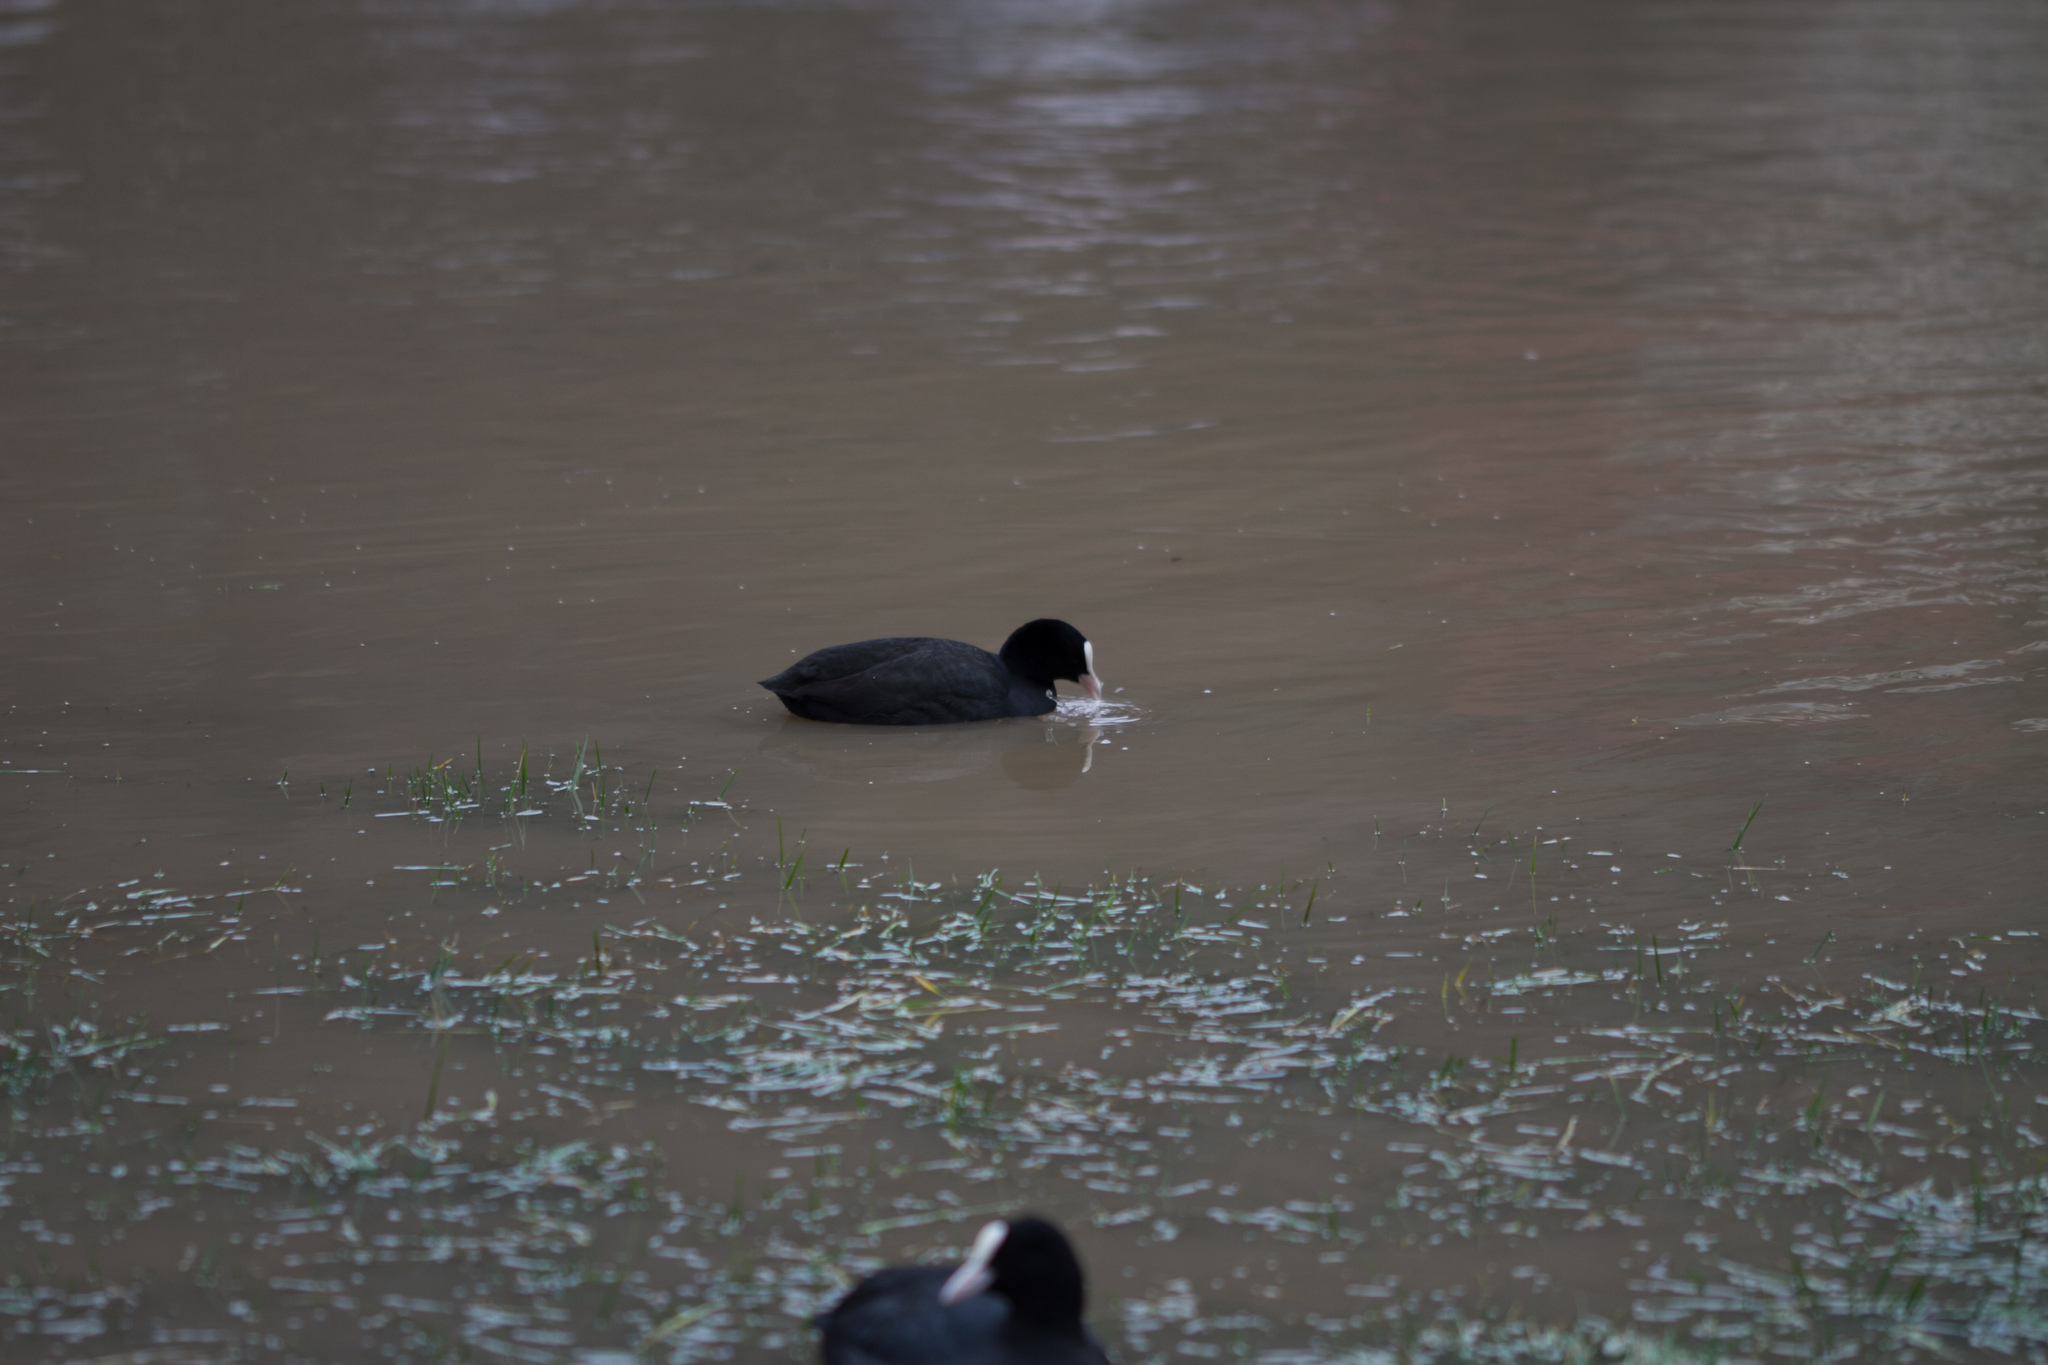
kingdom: Animalia
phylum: Chordata
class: Aves
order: Gruiformes
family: Rallidae
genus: Fulica
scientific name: Fulica atra
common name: Eurasian coot
